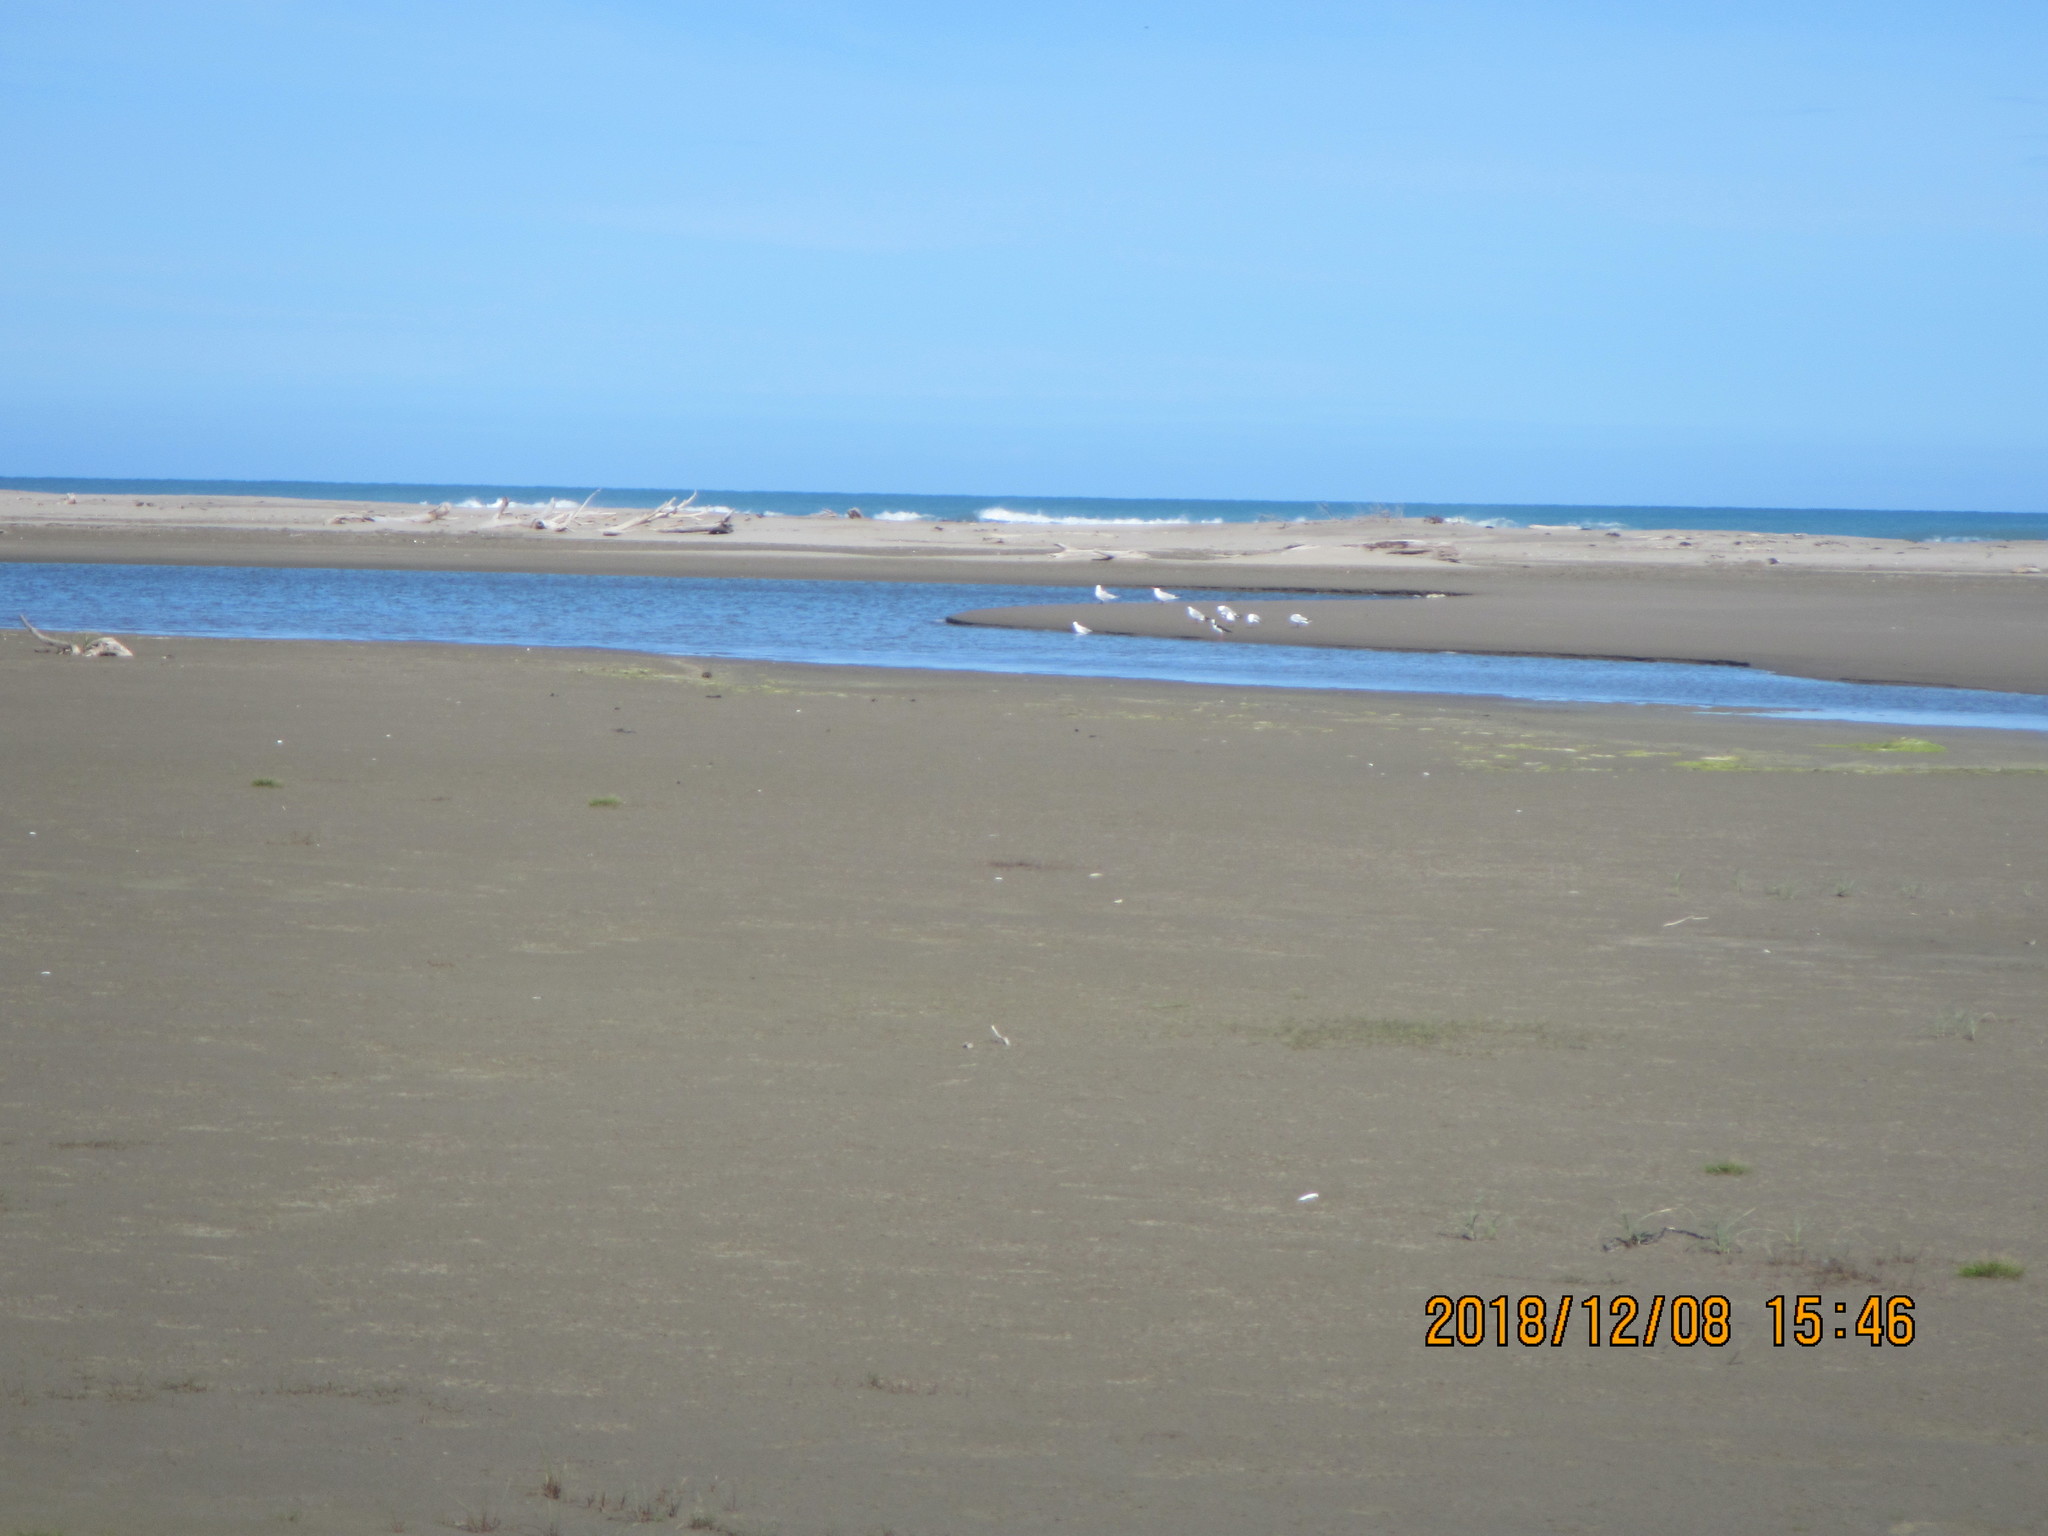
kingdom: Animalia
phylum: Chordata
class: Aves
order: Charadriiformes
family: Laridae
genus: Hydroprogne
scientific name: Hydroprogne caspia
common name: Caspian tern
